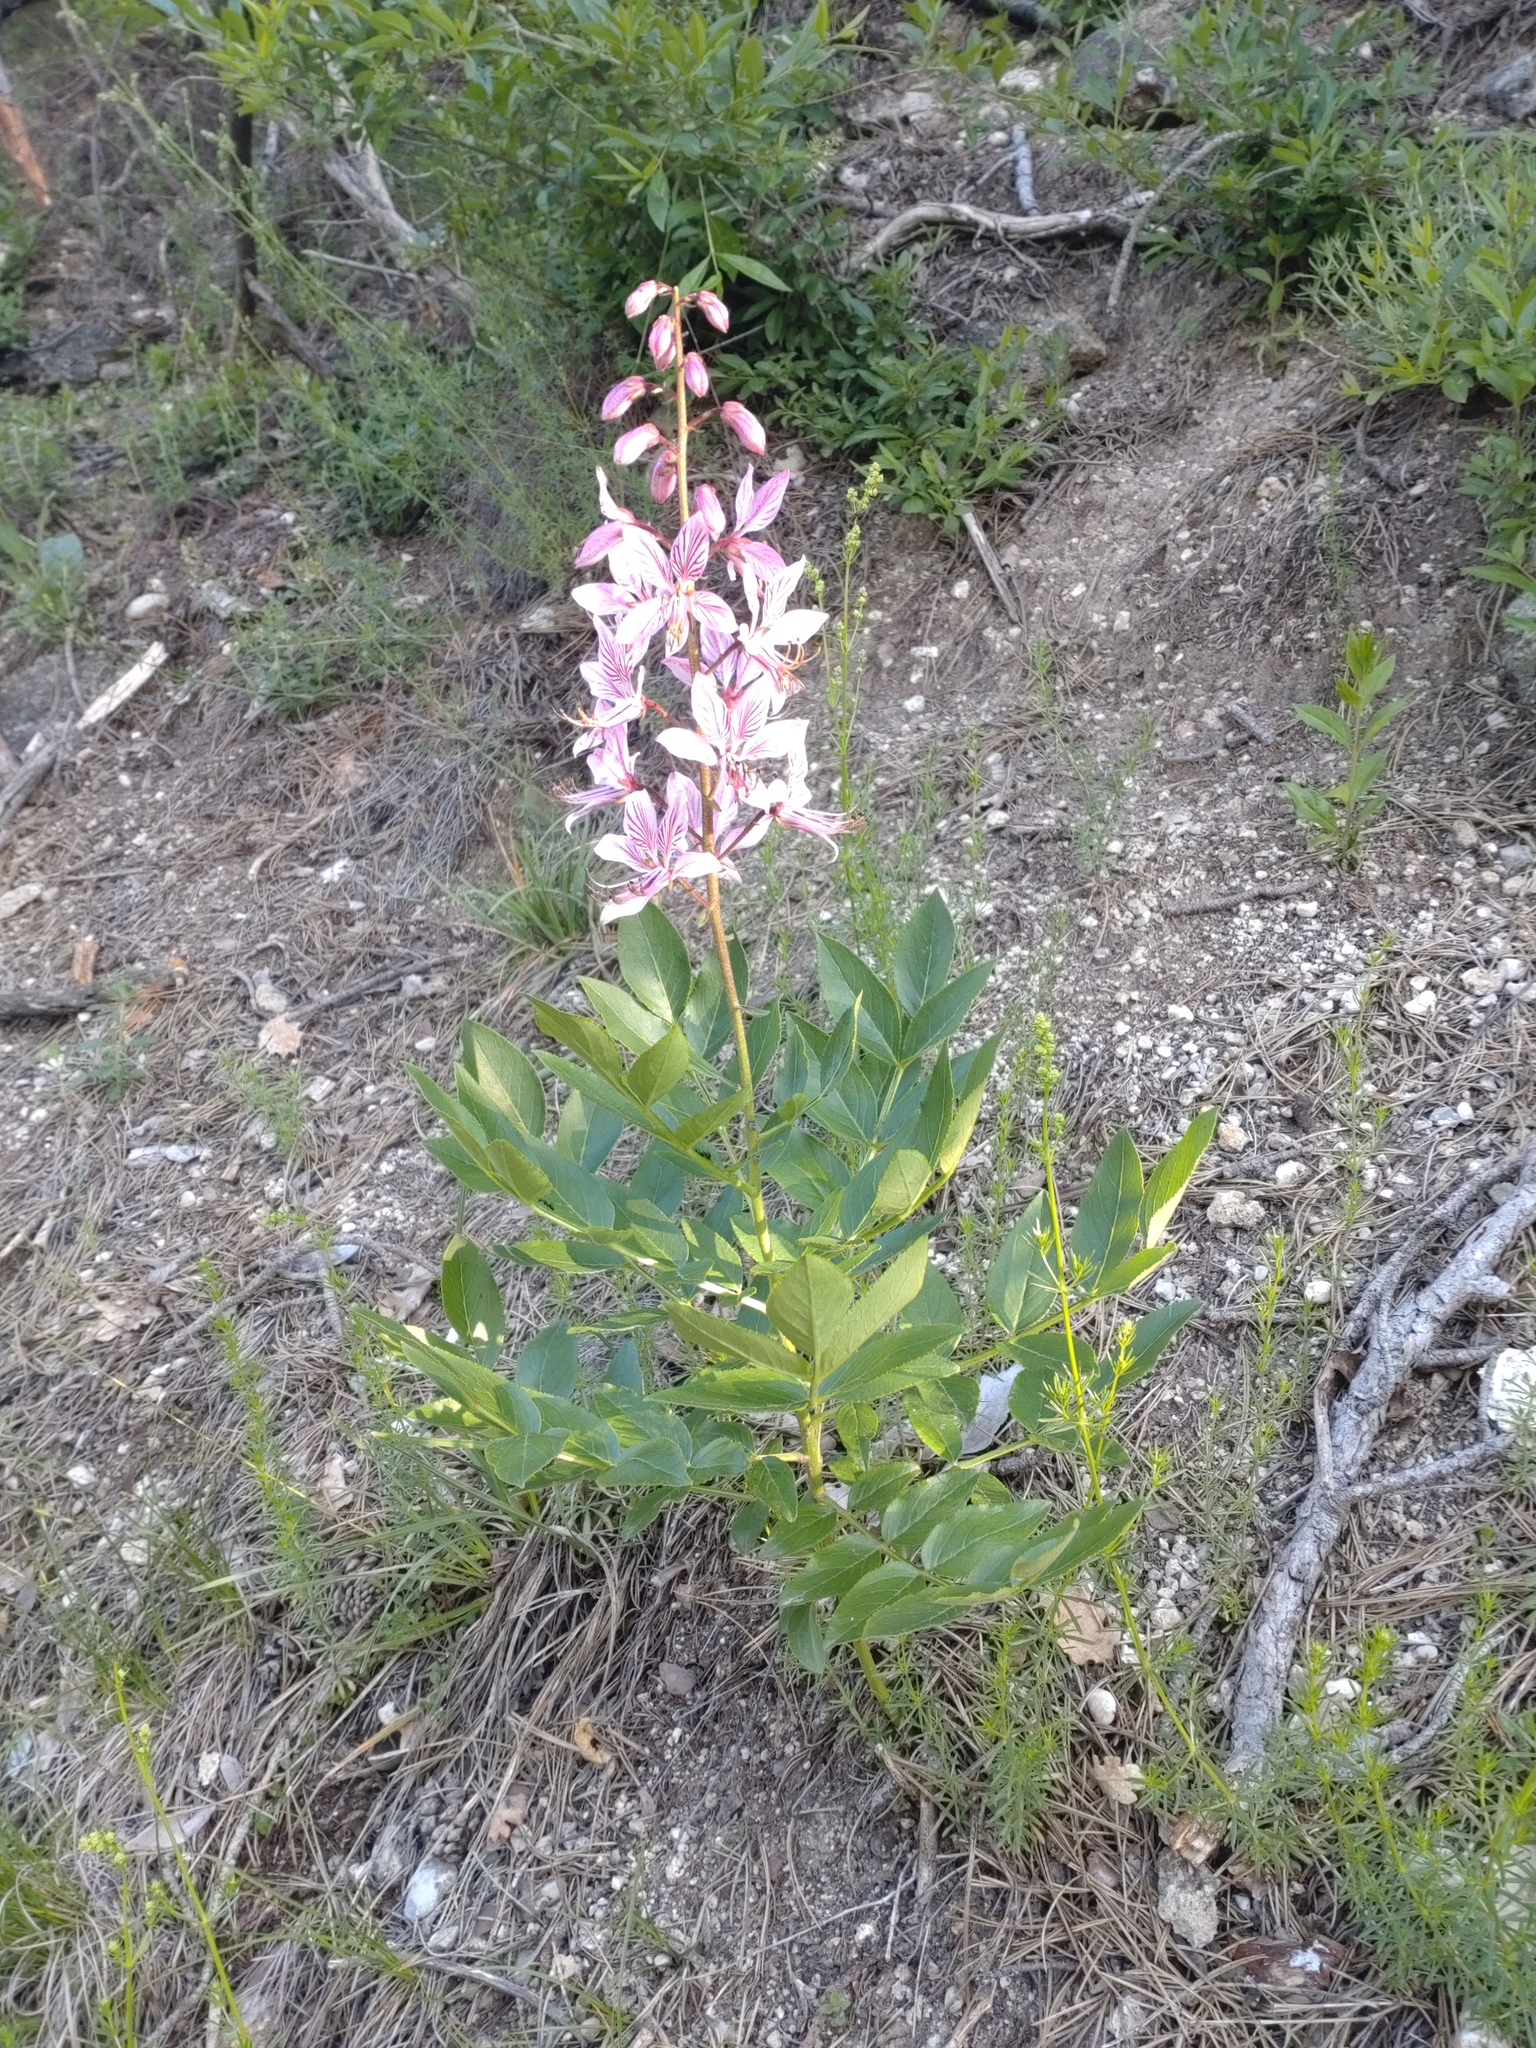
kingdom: Plantae
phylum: Tracheophyta
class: Magnoliopsida
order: Sapindales
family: Rutaceae
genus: Dictamnus
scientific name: Dictamnus albus
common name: Gasplant
